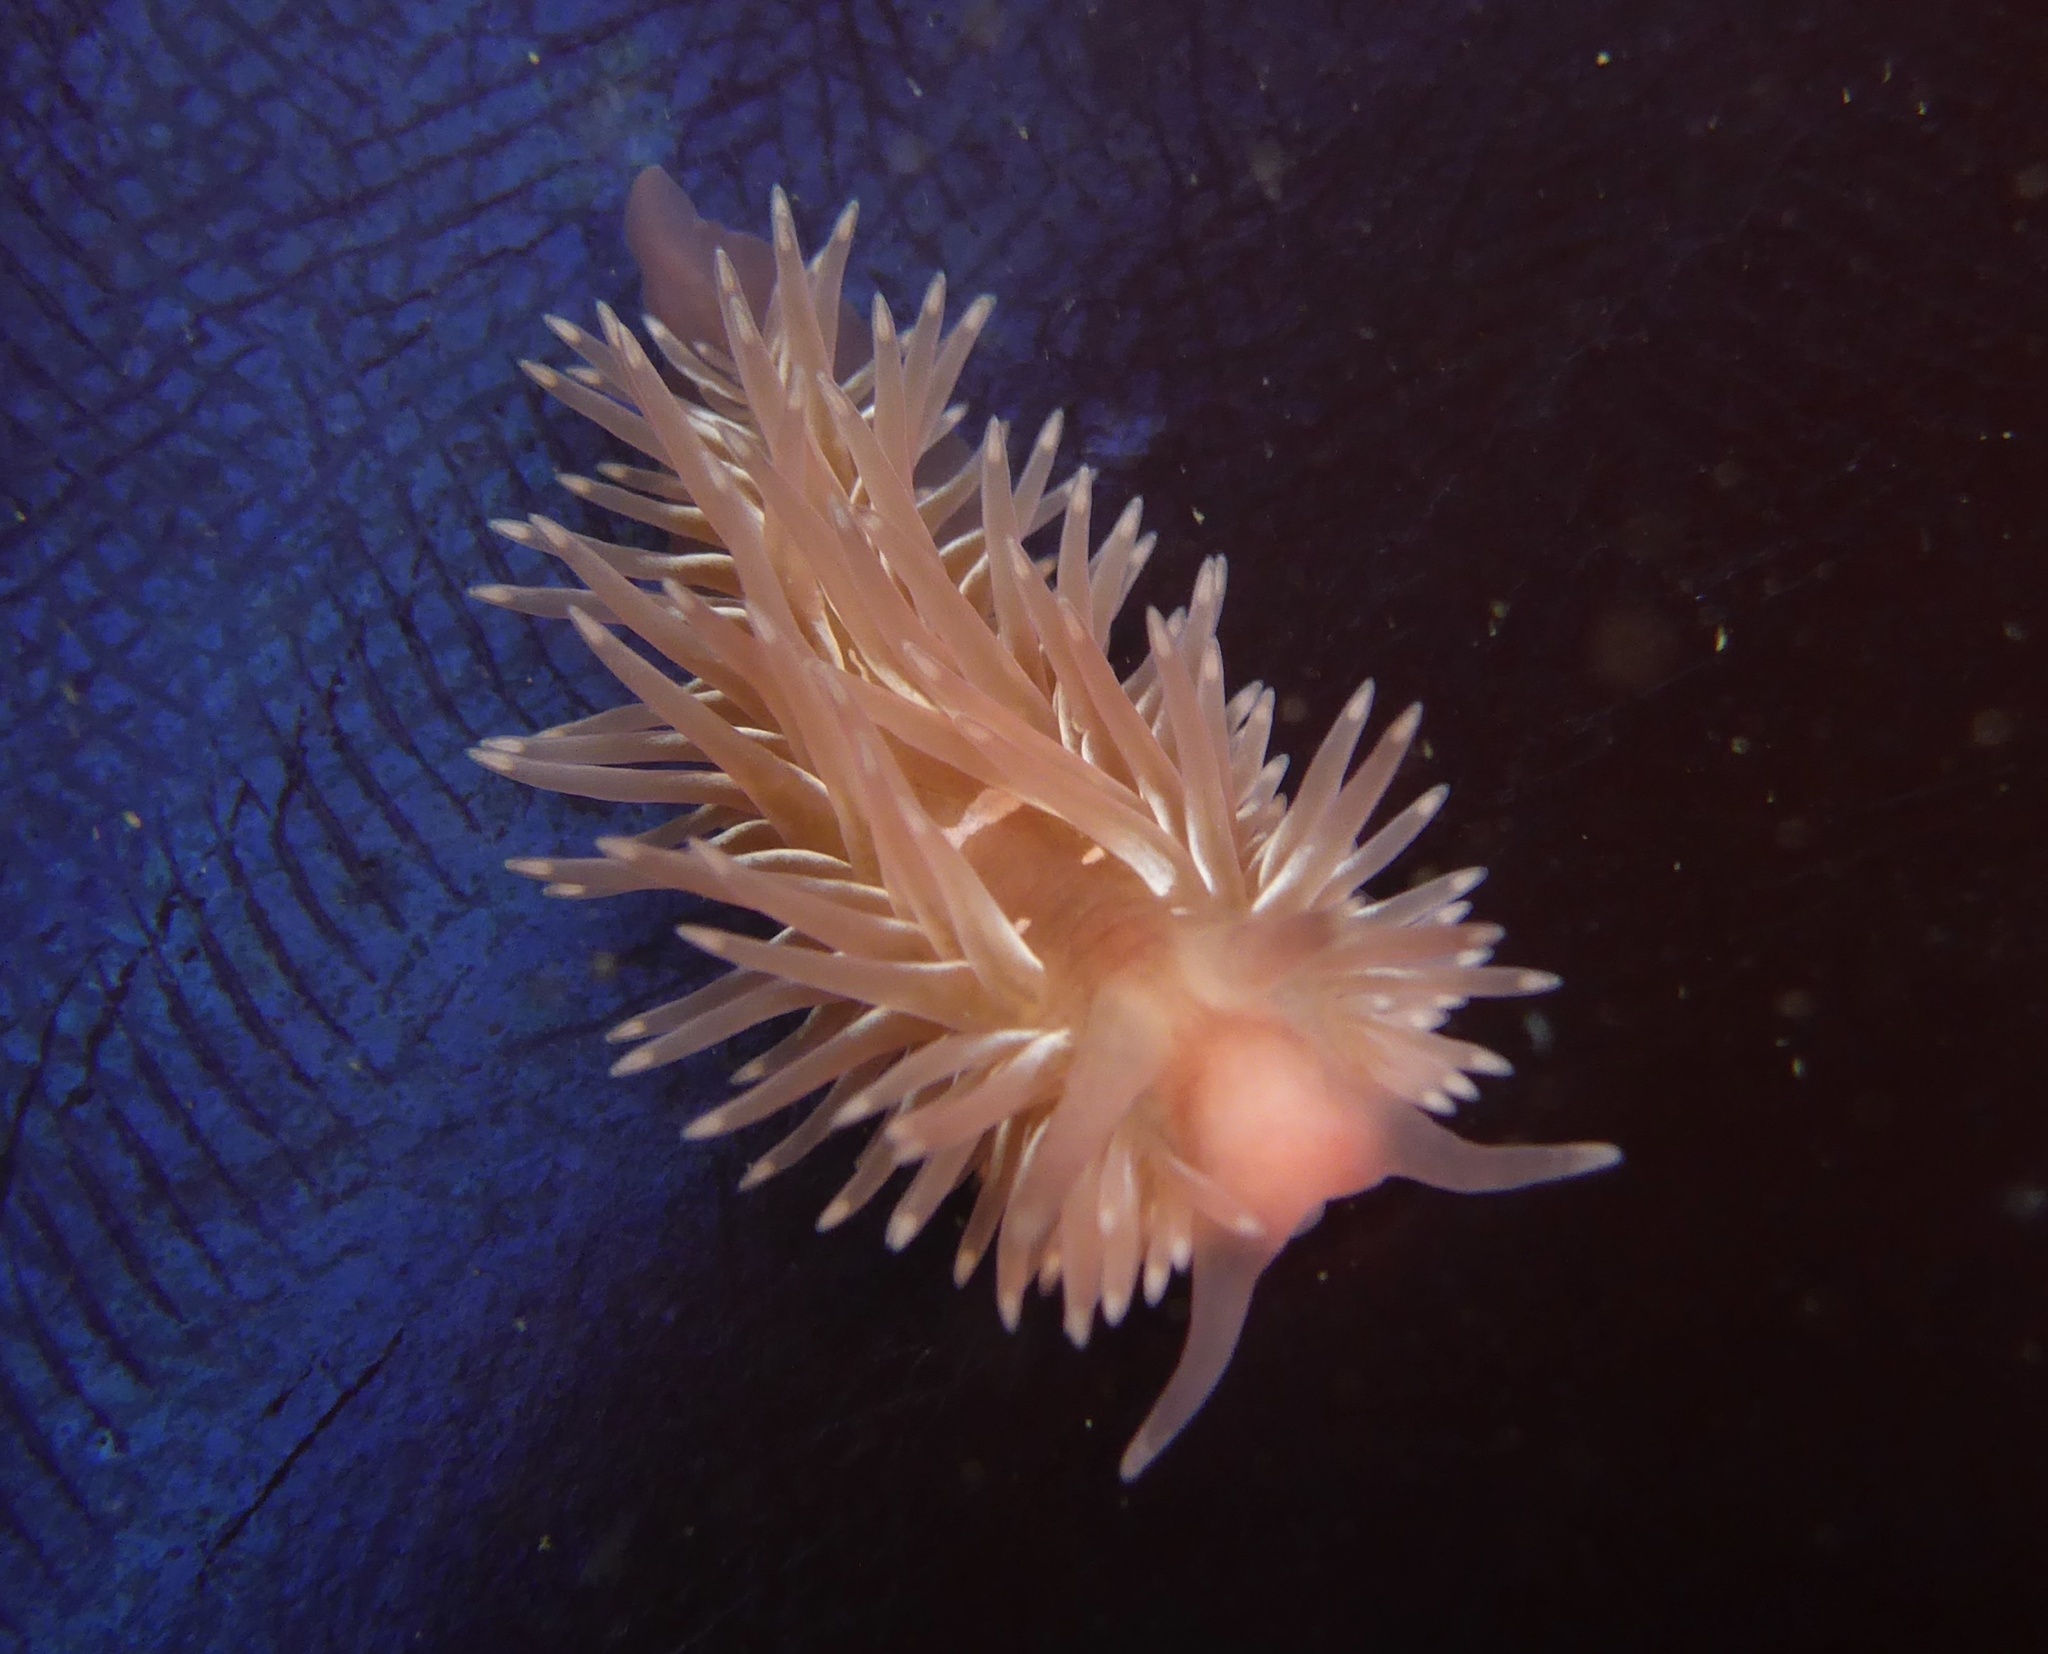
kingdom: Animalia
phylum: Mollusca
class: Gastropoda
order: Nudibranchia
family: Aeolidiidae
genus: Aeolidia
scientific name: Aeolidia loui
